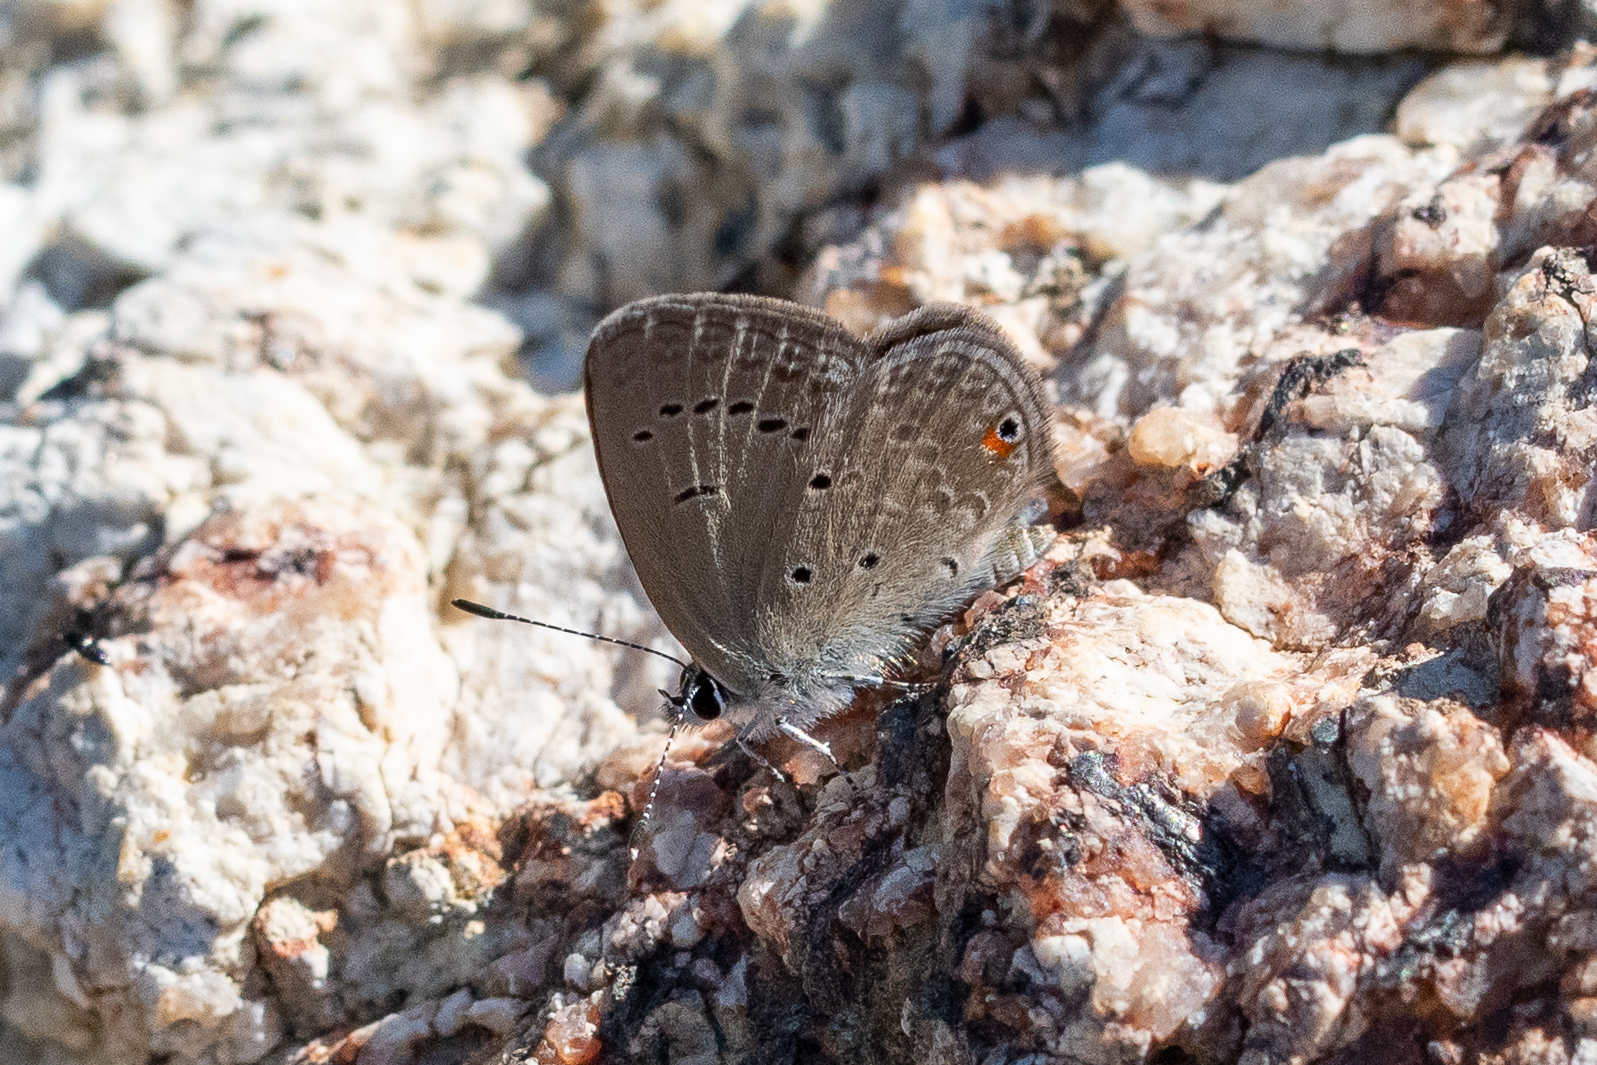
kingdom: Animalia
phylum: Arthropoda
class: Insecta
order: Lepidoptera
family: Lycaenidae
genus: Eicochrysops
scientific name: Eicochrysops messapus
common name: Cupreous blue
